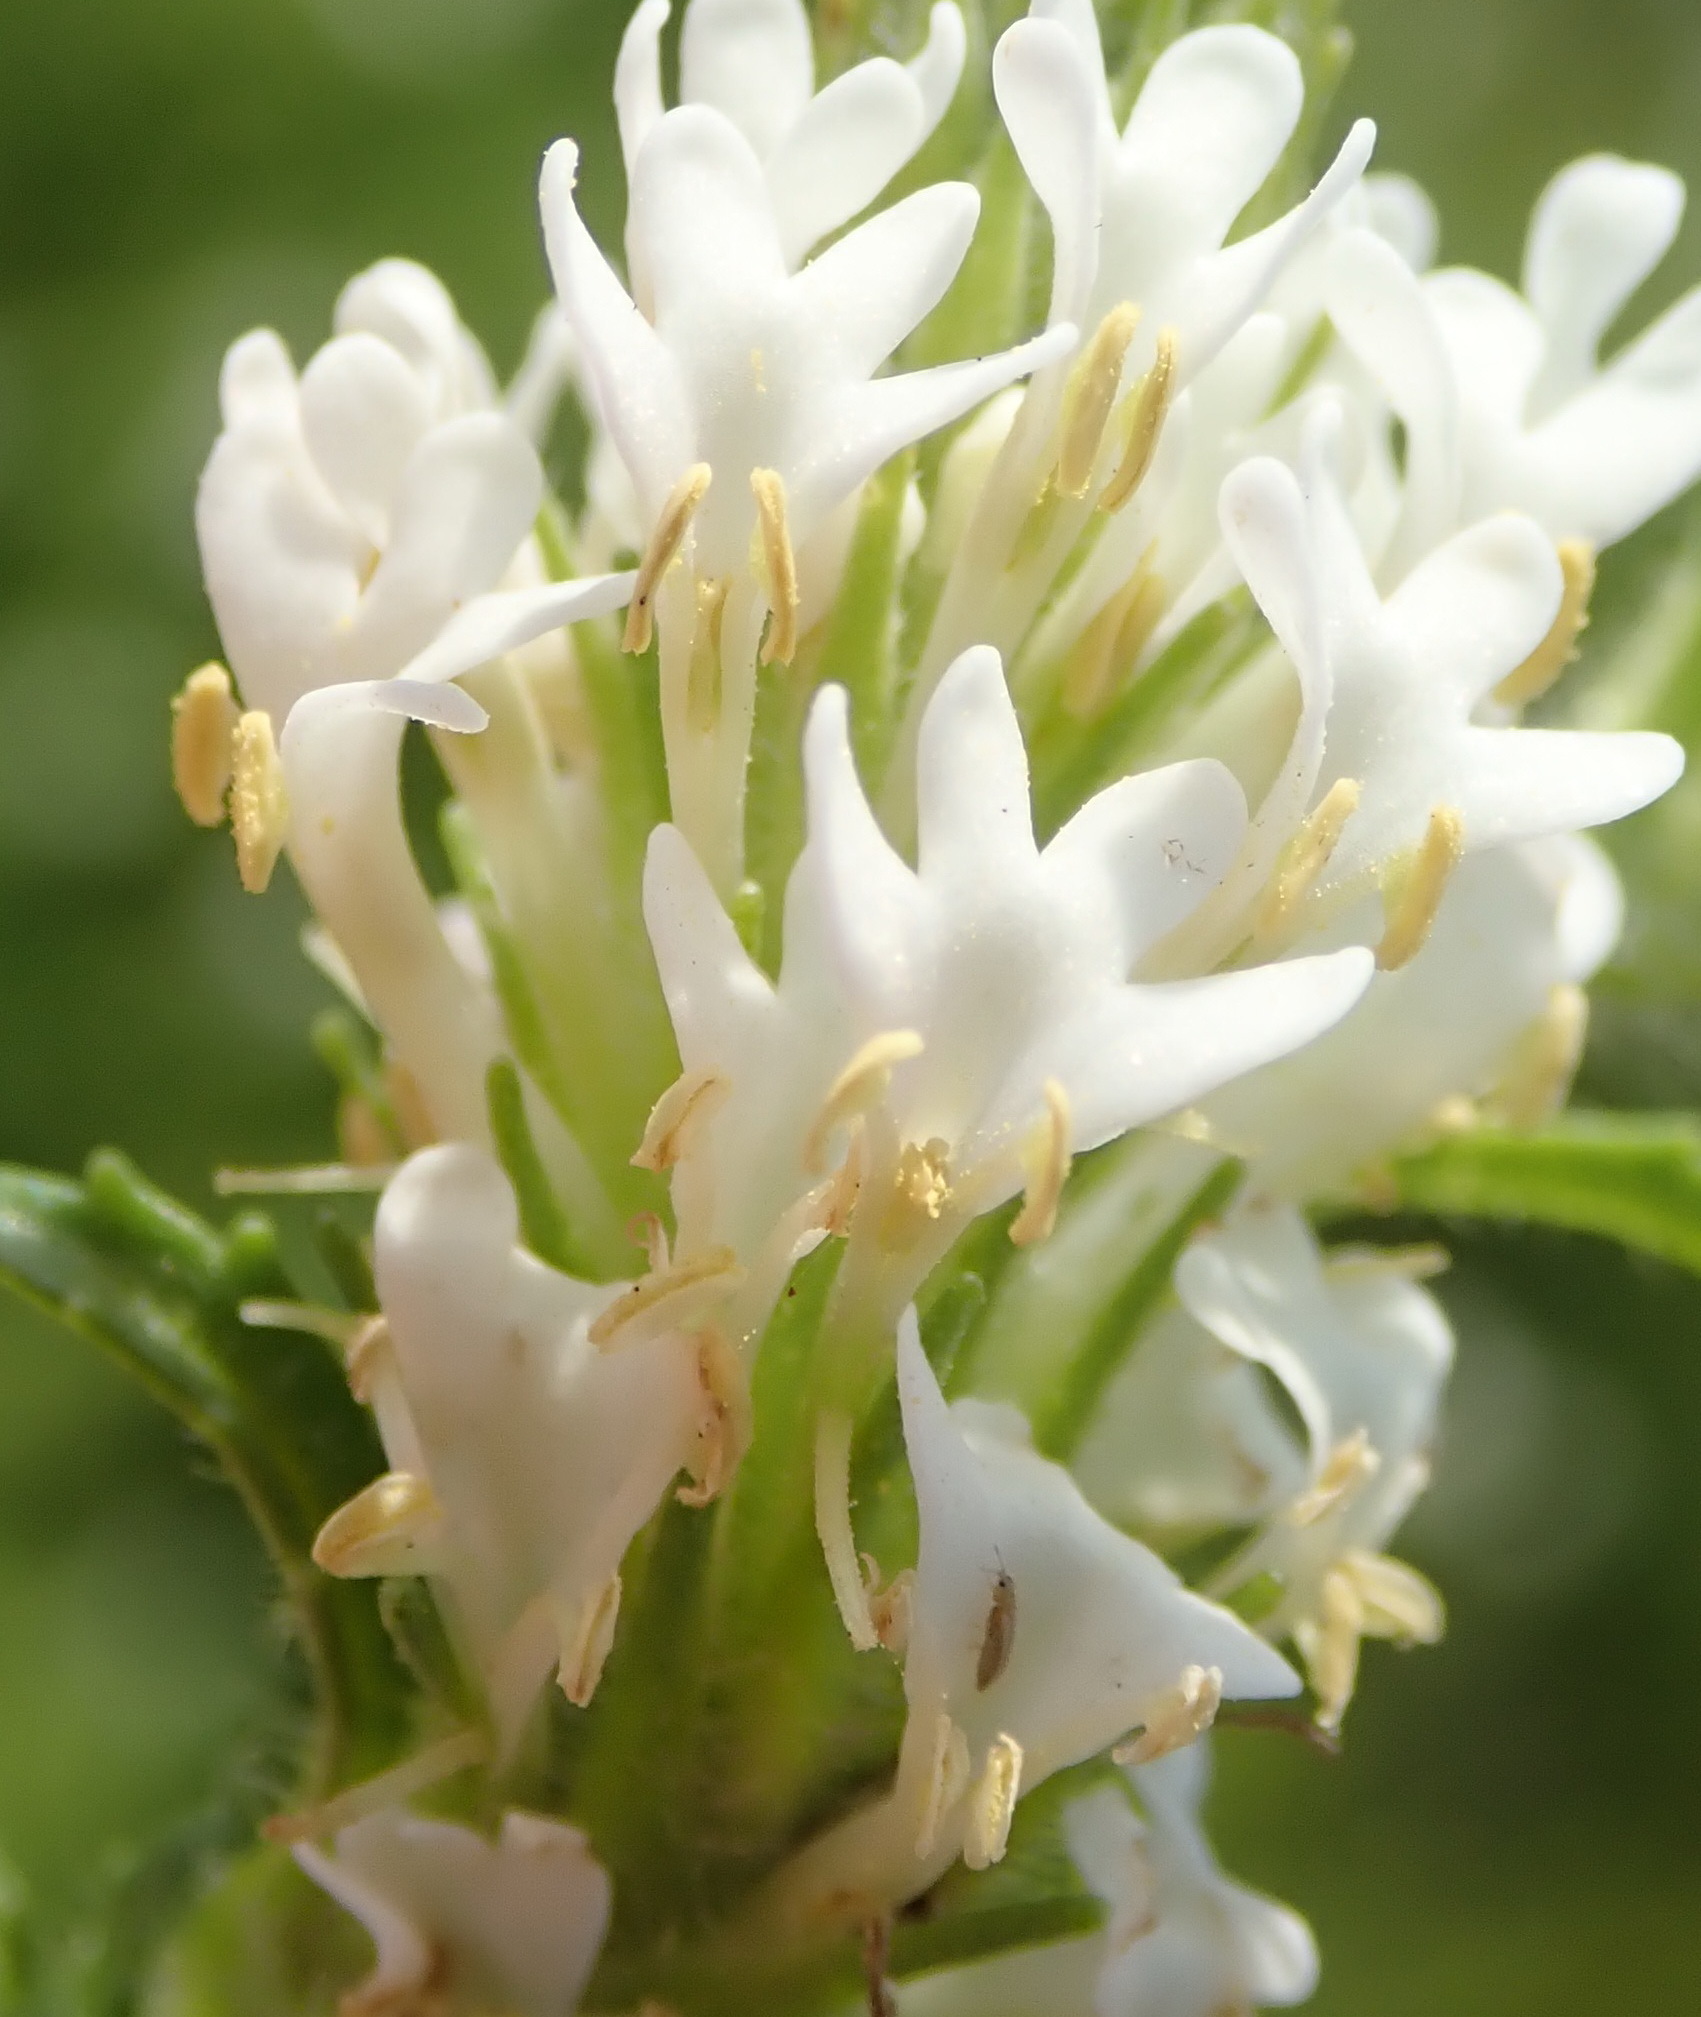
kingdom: Plantae
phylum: Tracheophyta
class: Magnoliopsida
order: Lamiales
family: Scrophulariaceae
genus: Dischisma
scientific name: Dischisma ciliatum
